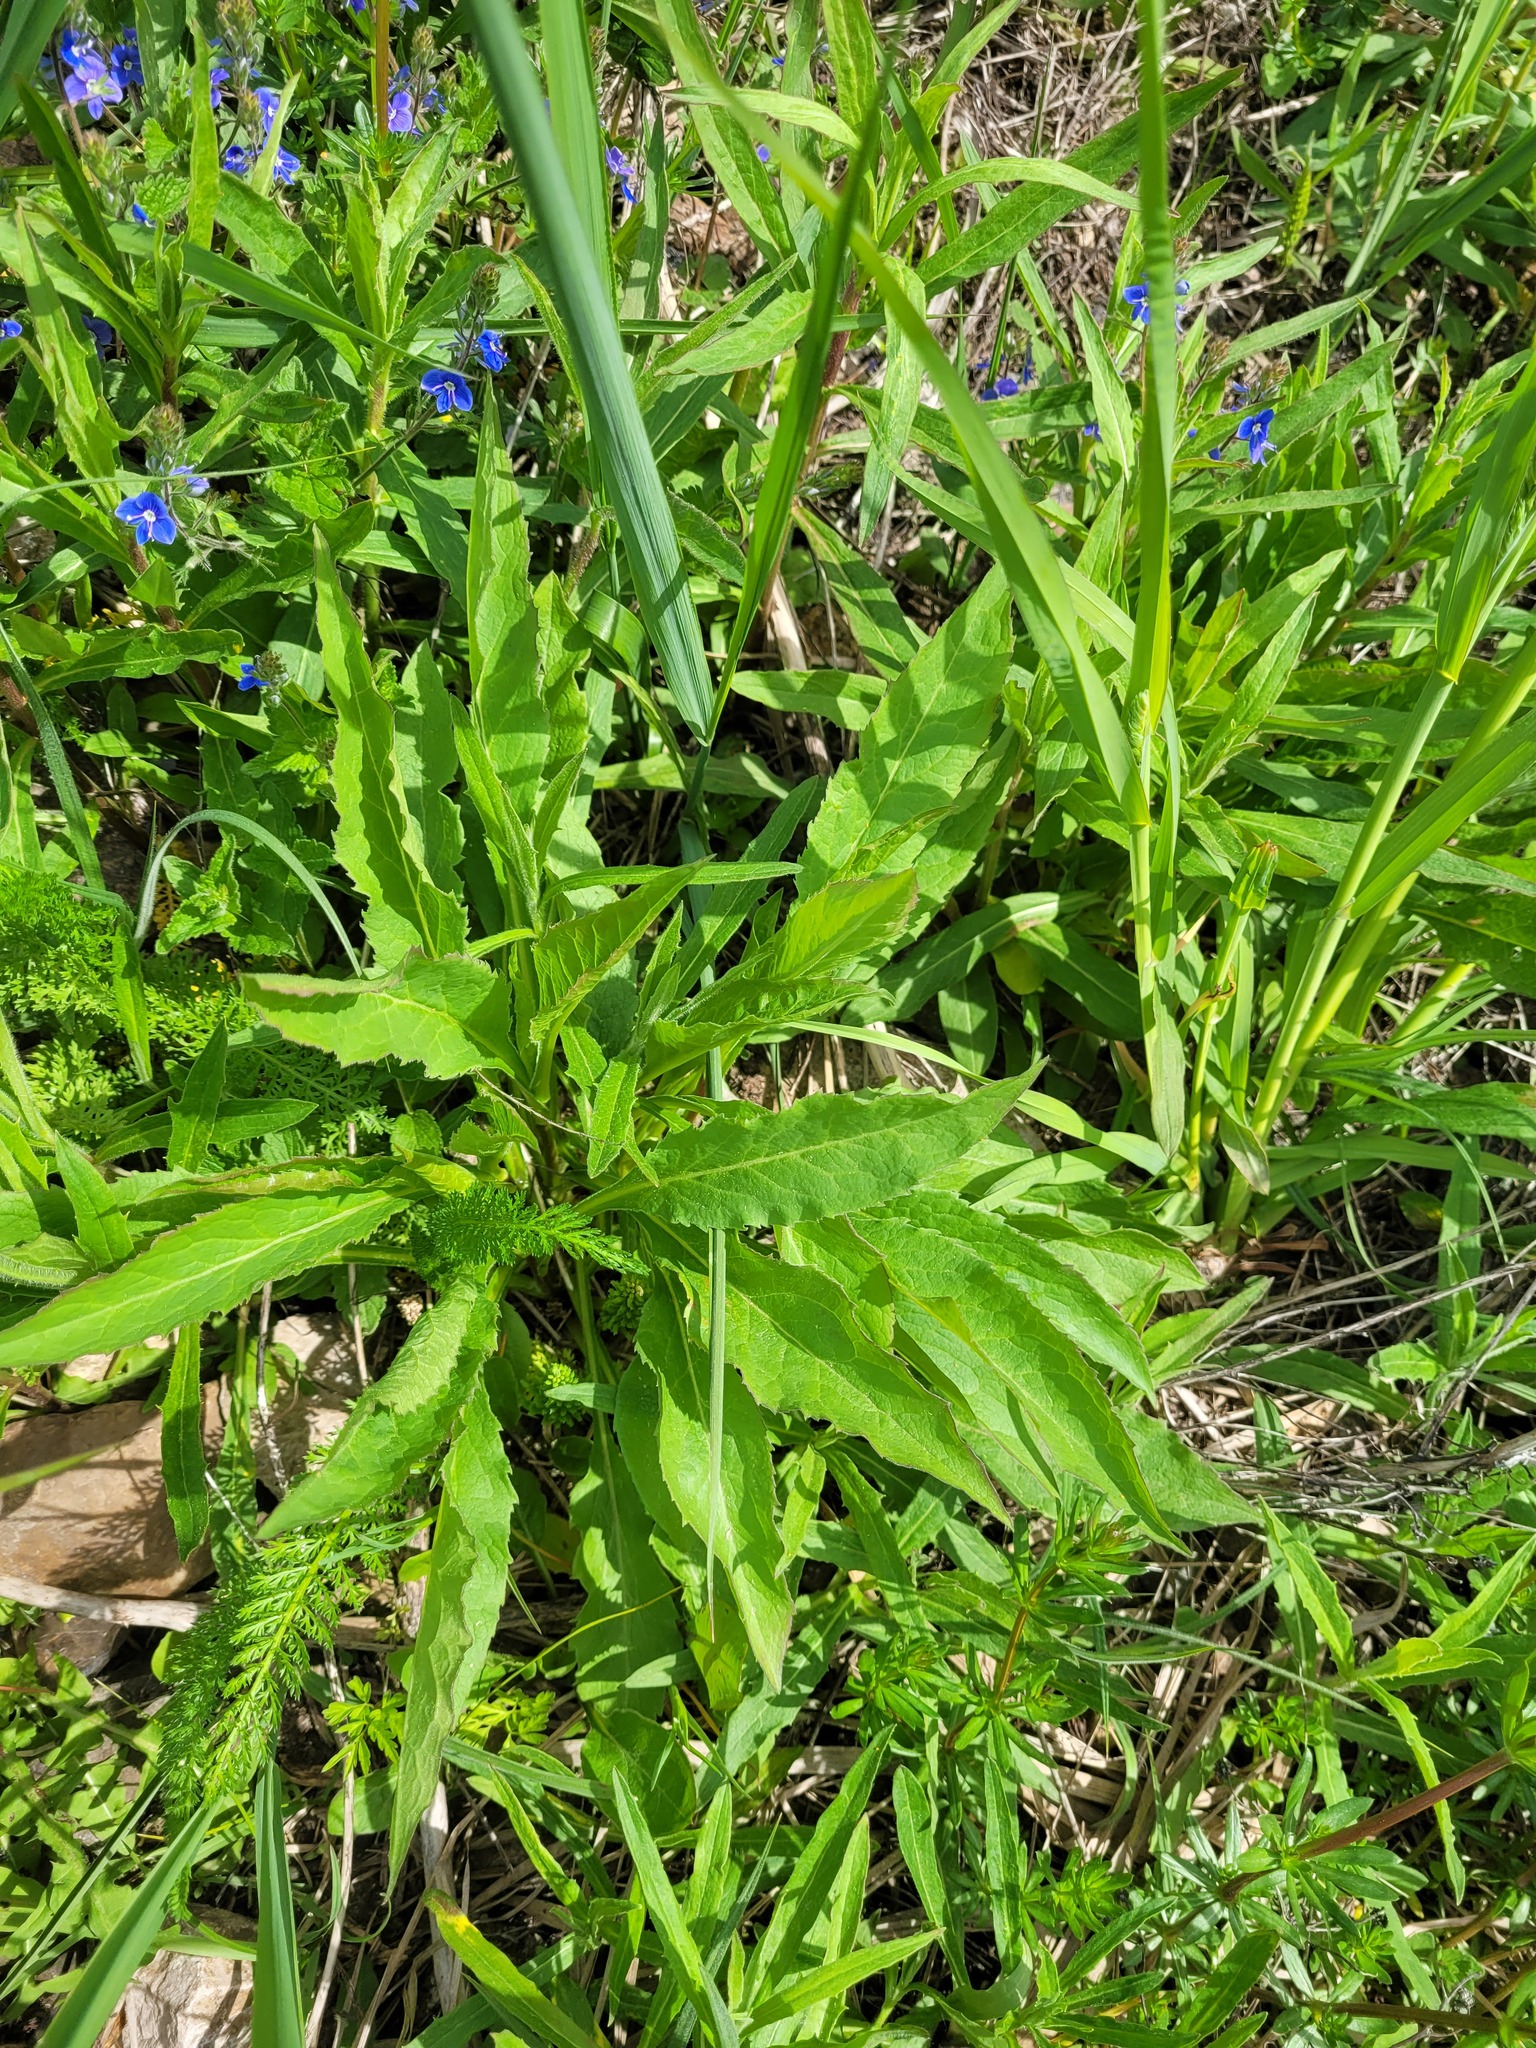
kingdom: Plantae
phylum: Tracheophyta
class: Magnoliopsida
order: Asterales
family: Asteraceae
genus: Solidago
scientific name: Solidago virgaurea
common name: Goldenrod
